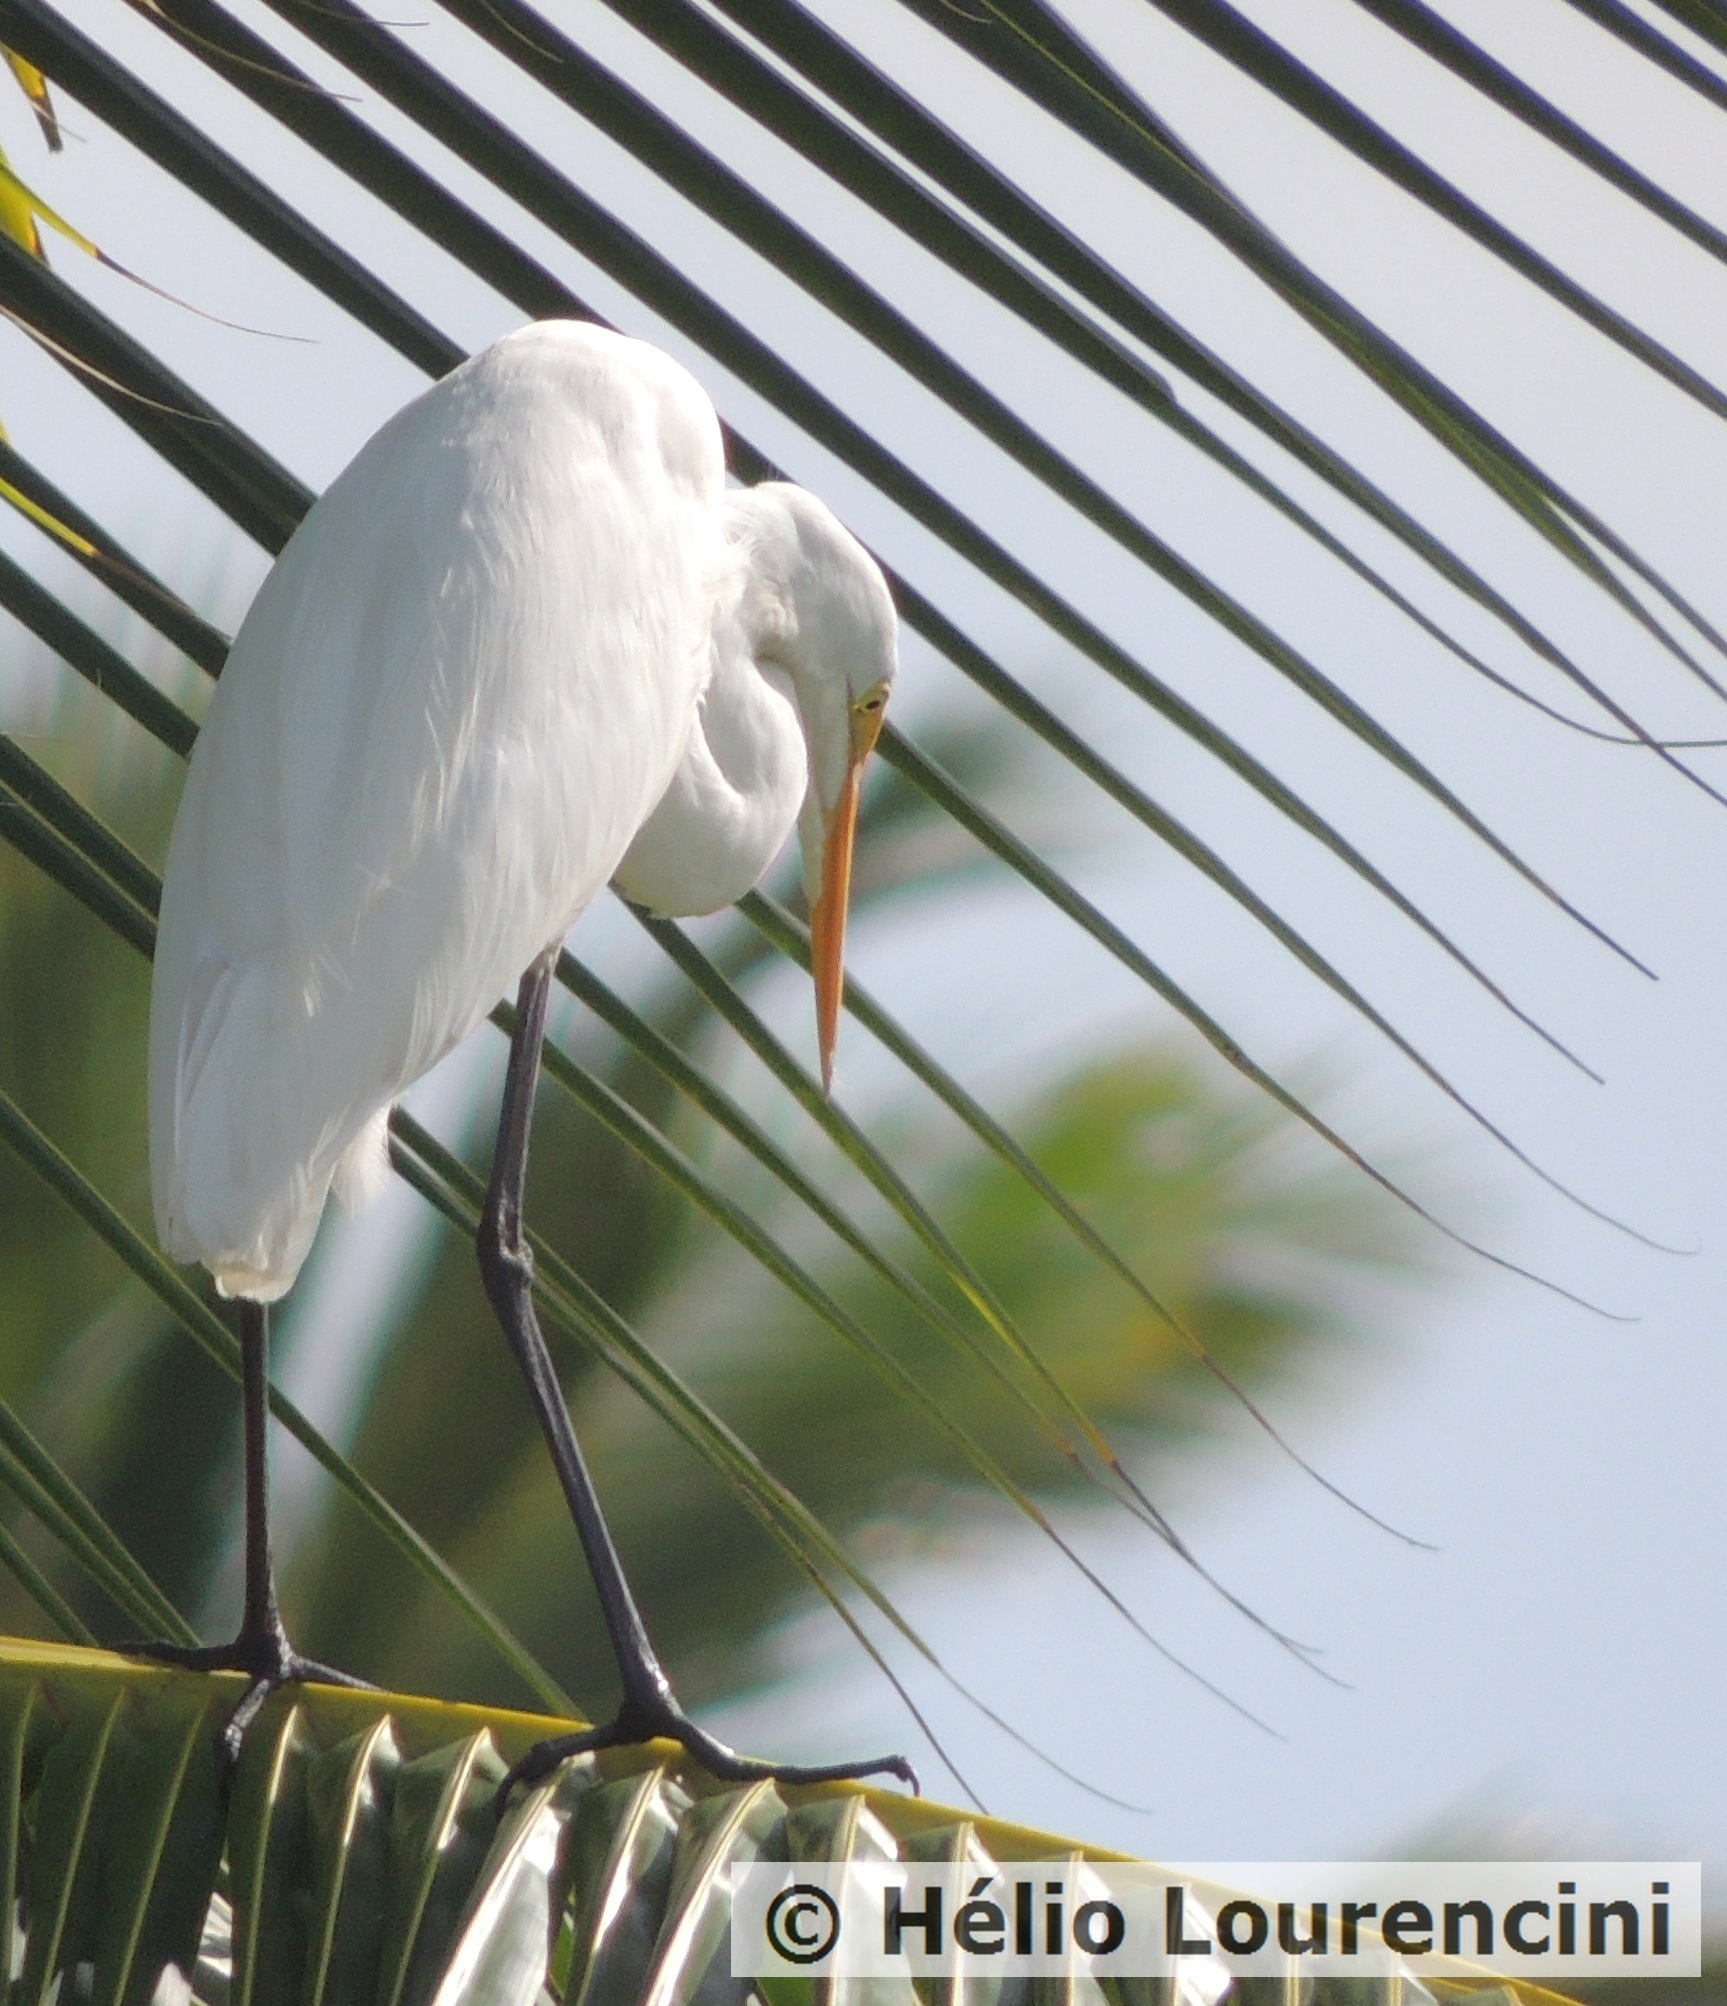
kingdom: Animalia
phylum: Chordata
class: Aves
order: Pelecaniformes
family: Ardeidae
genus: Ardea
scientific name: Ardea alba
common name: Great egret
